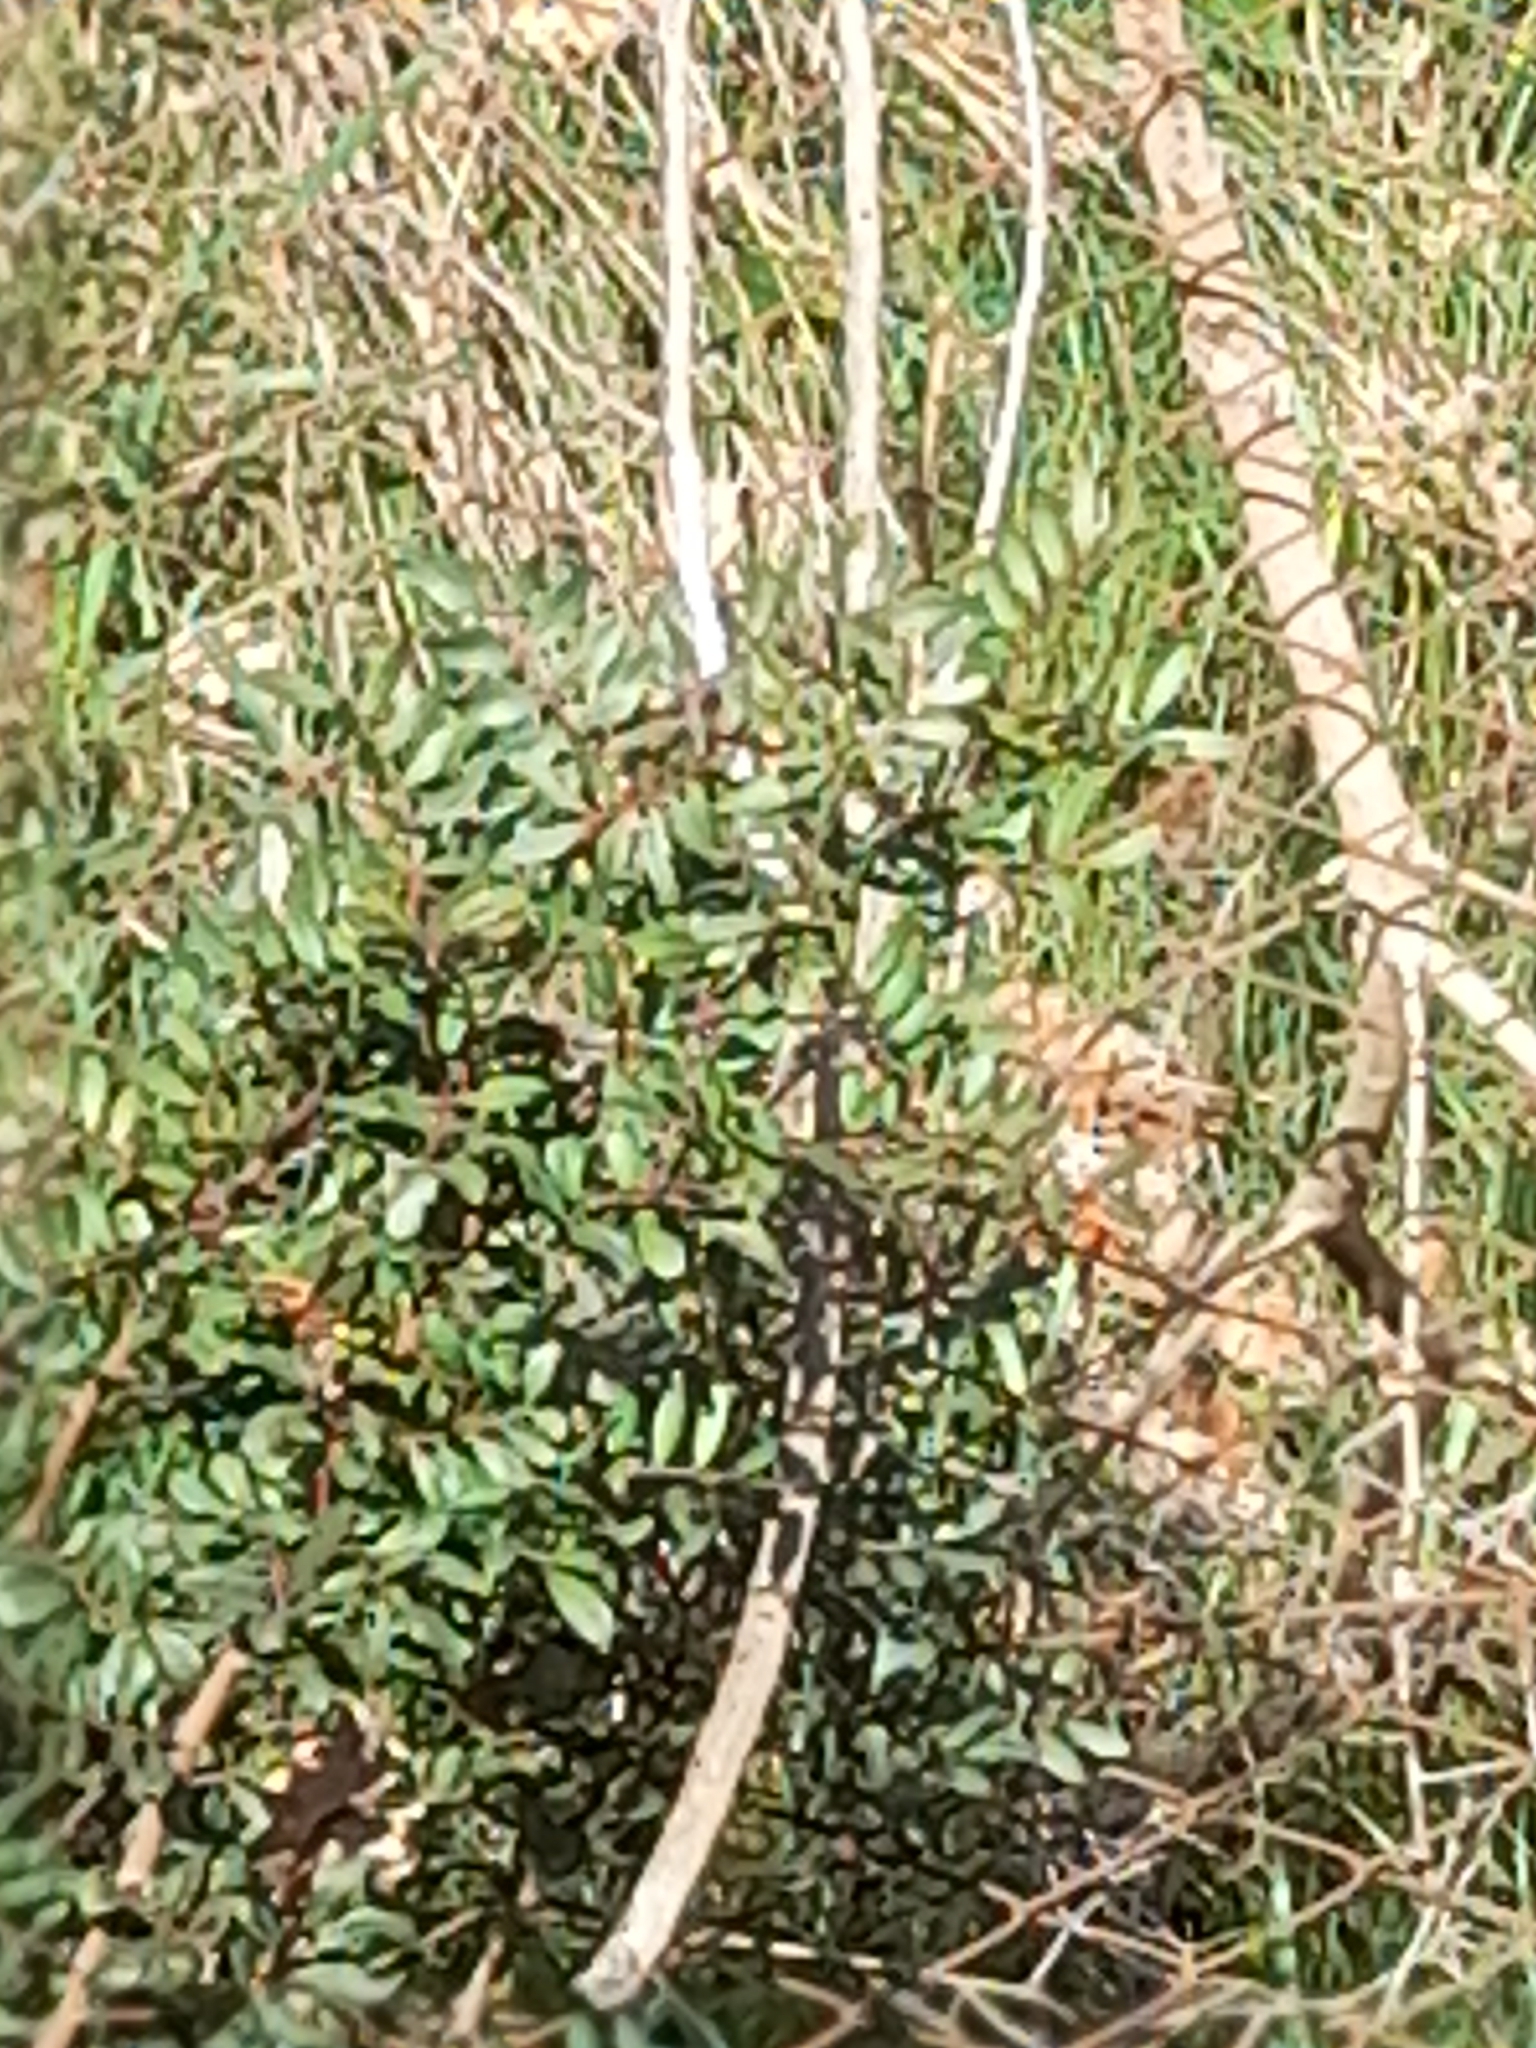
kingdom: Plantae
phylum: Tracheophyta
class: Magnoliopsida
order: Sapindales
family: Anacardiaceae
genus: Pistacia
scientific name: Pistacia lentiscus
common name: Lentisk
